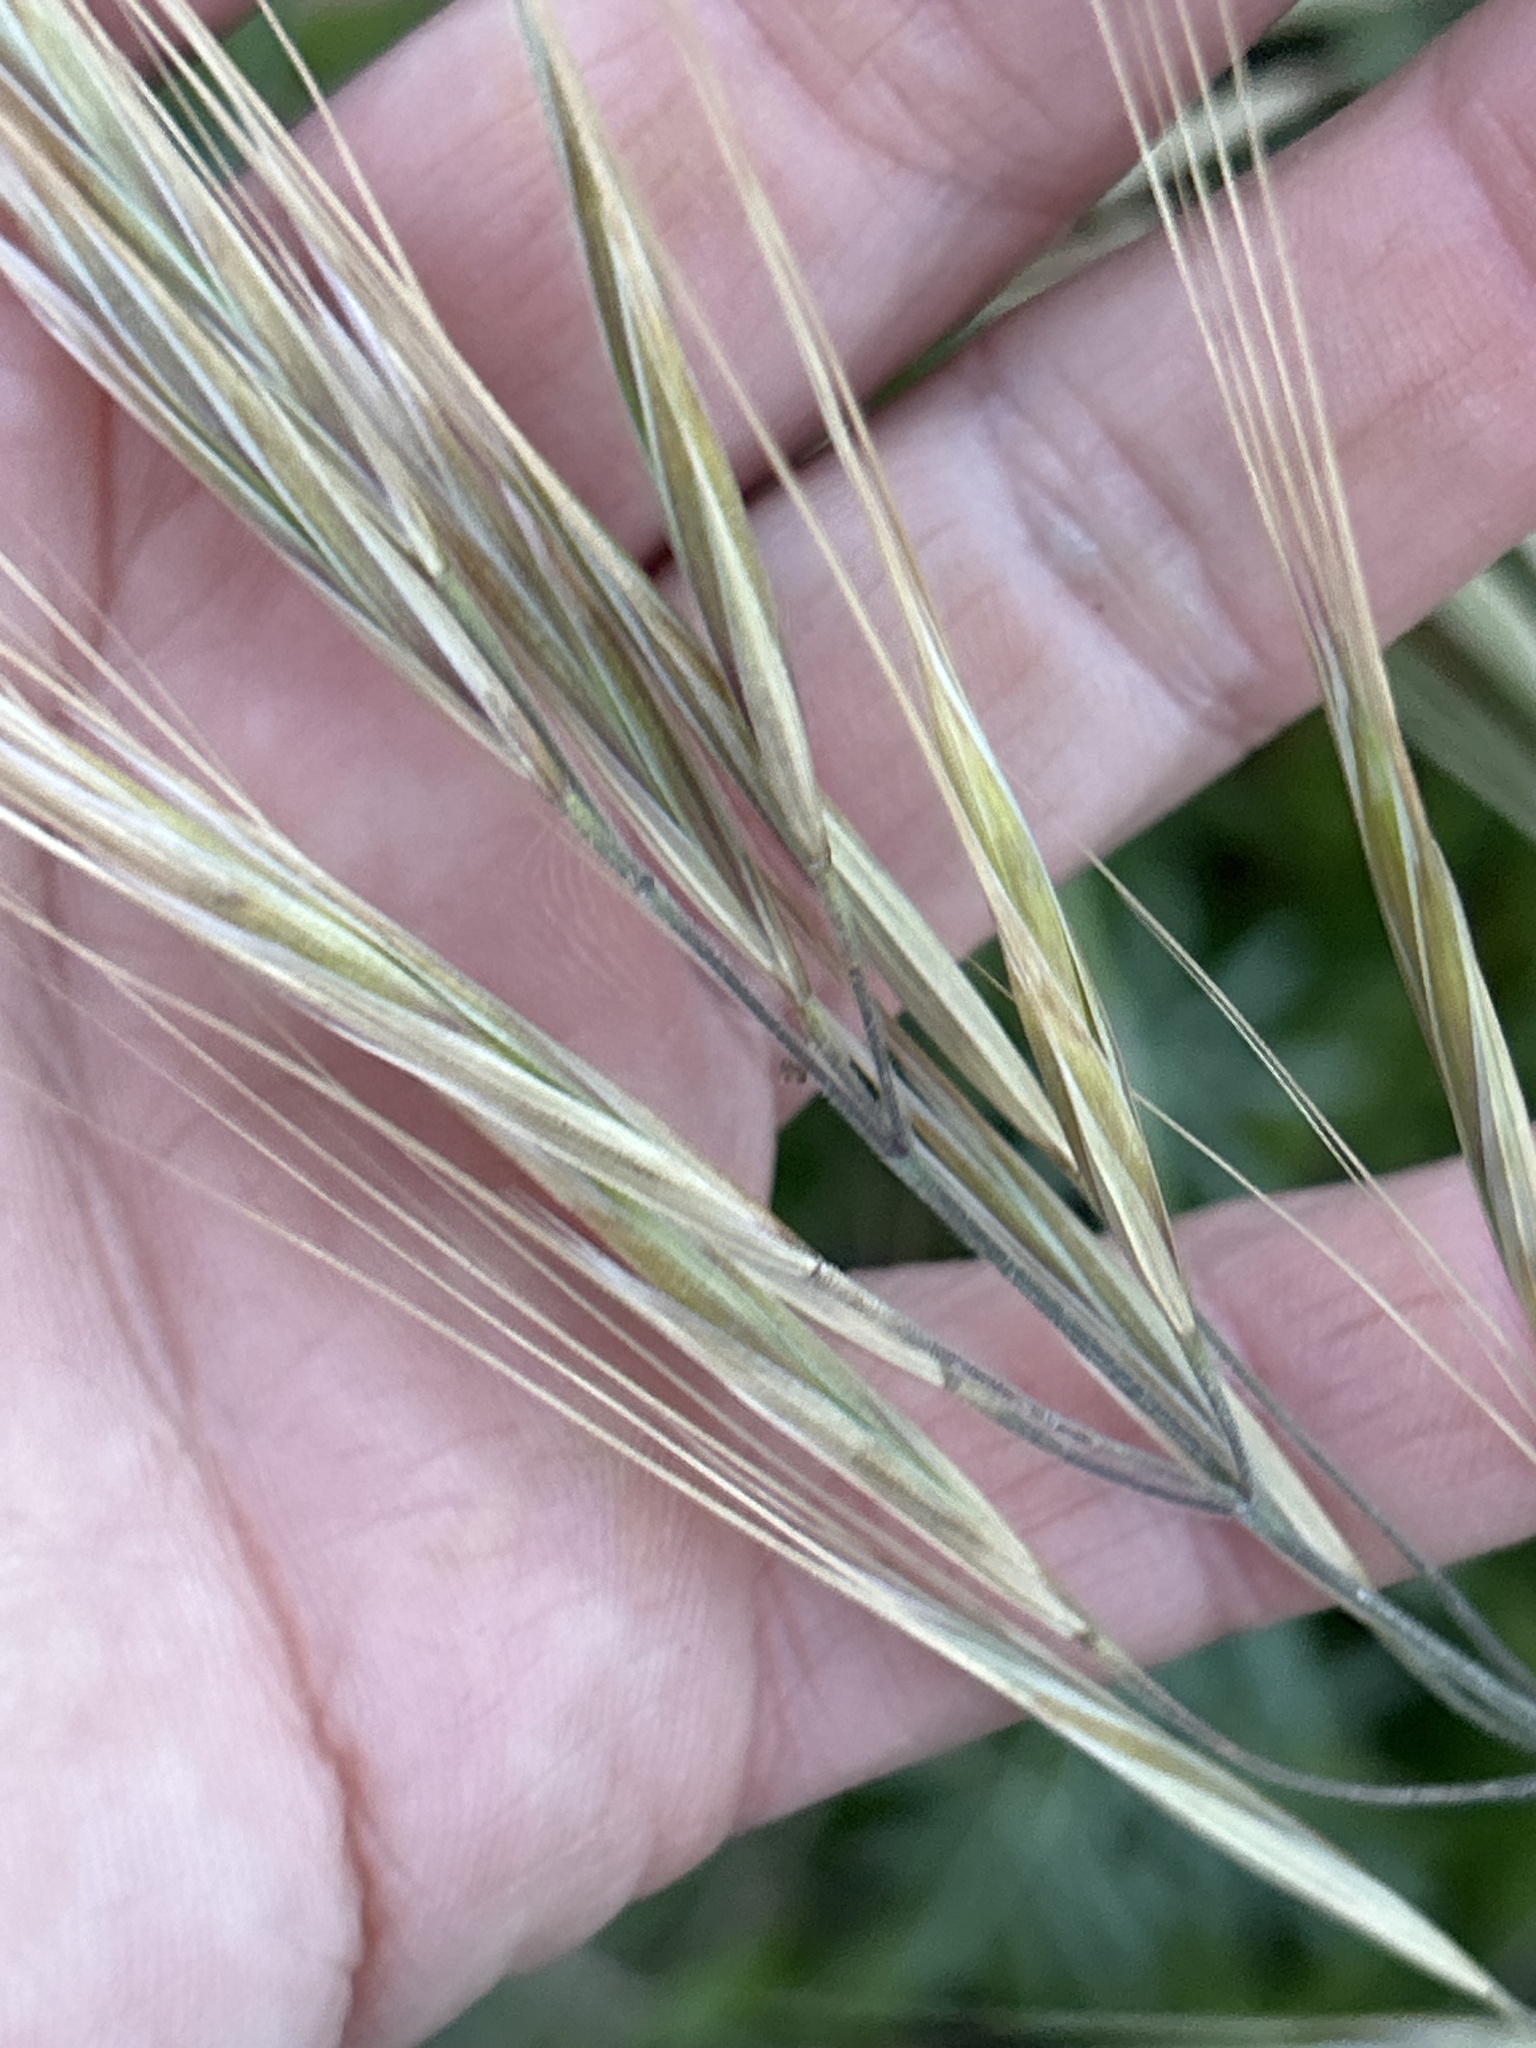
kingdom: Plantae
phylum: Tracheophyta
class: Liliopsida
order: Poales
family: Poaceae
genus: Bromus
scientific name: Bromus diandrus
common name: Ripgut brome
